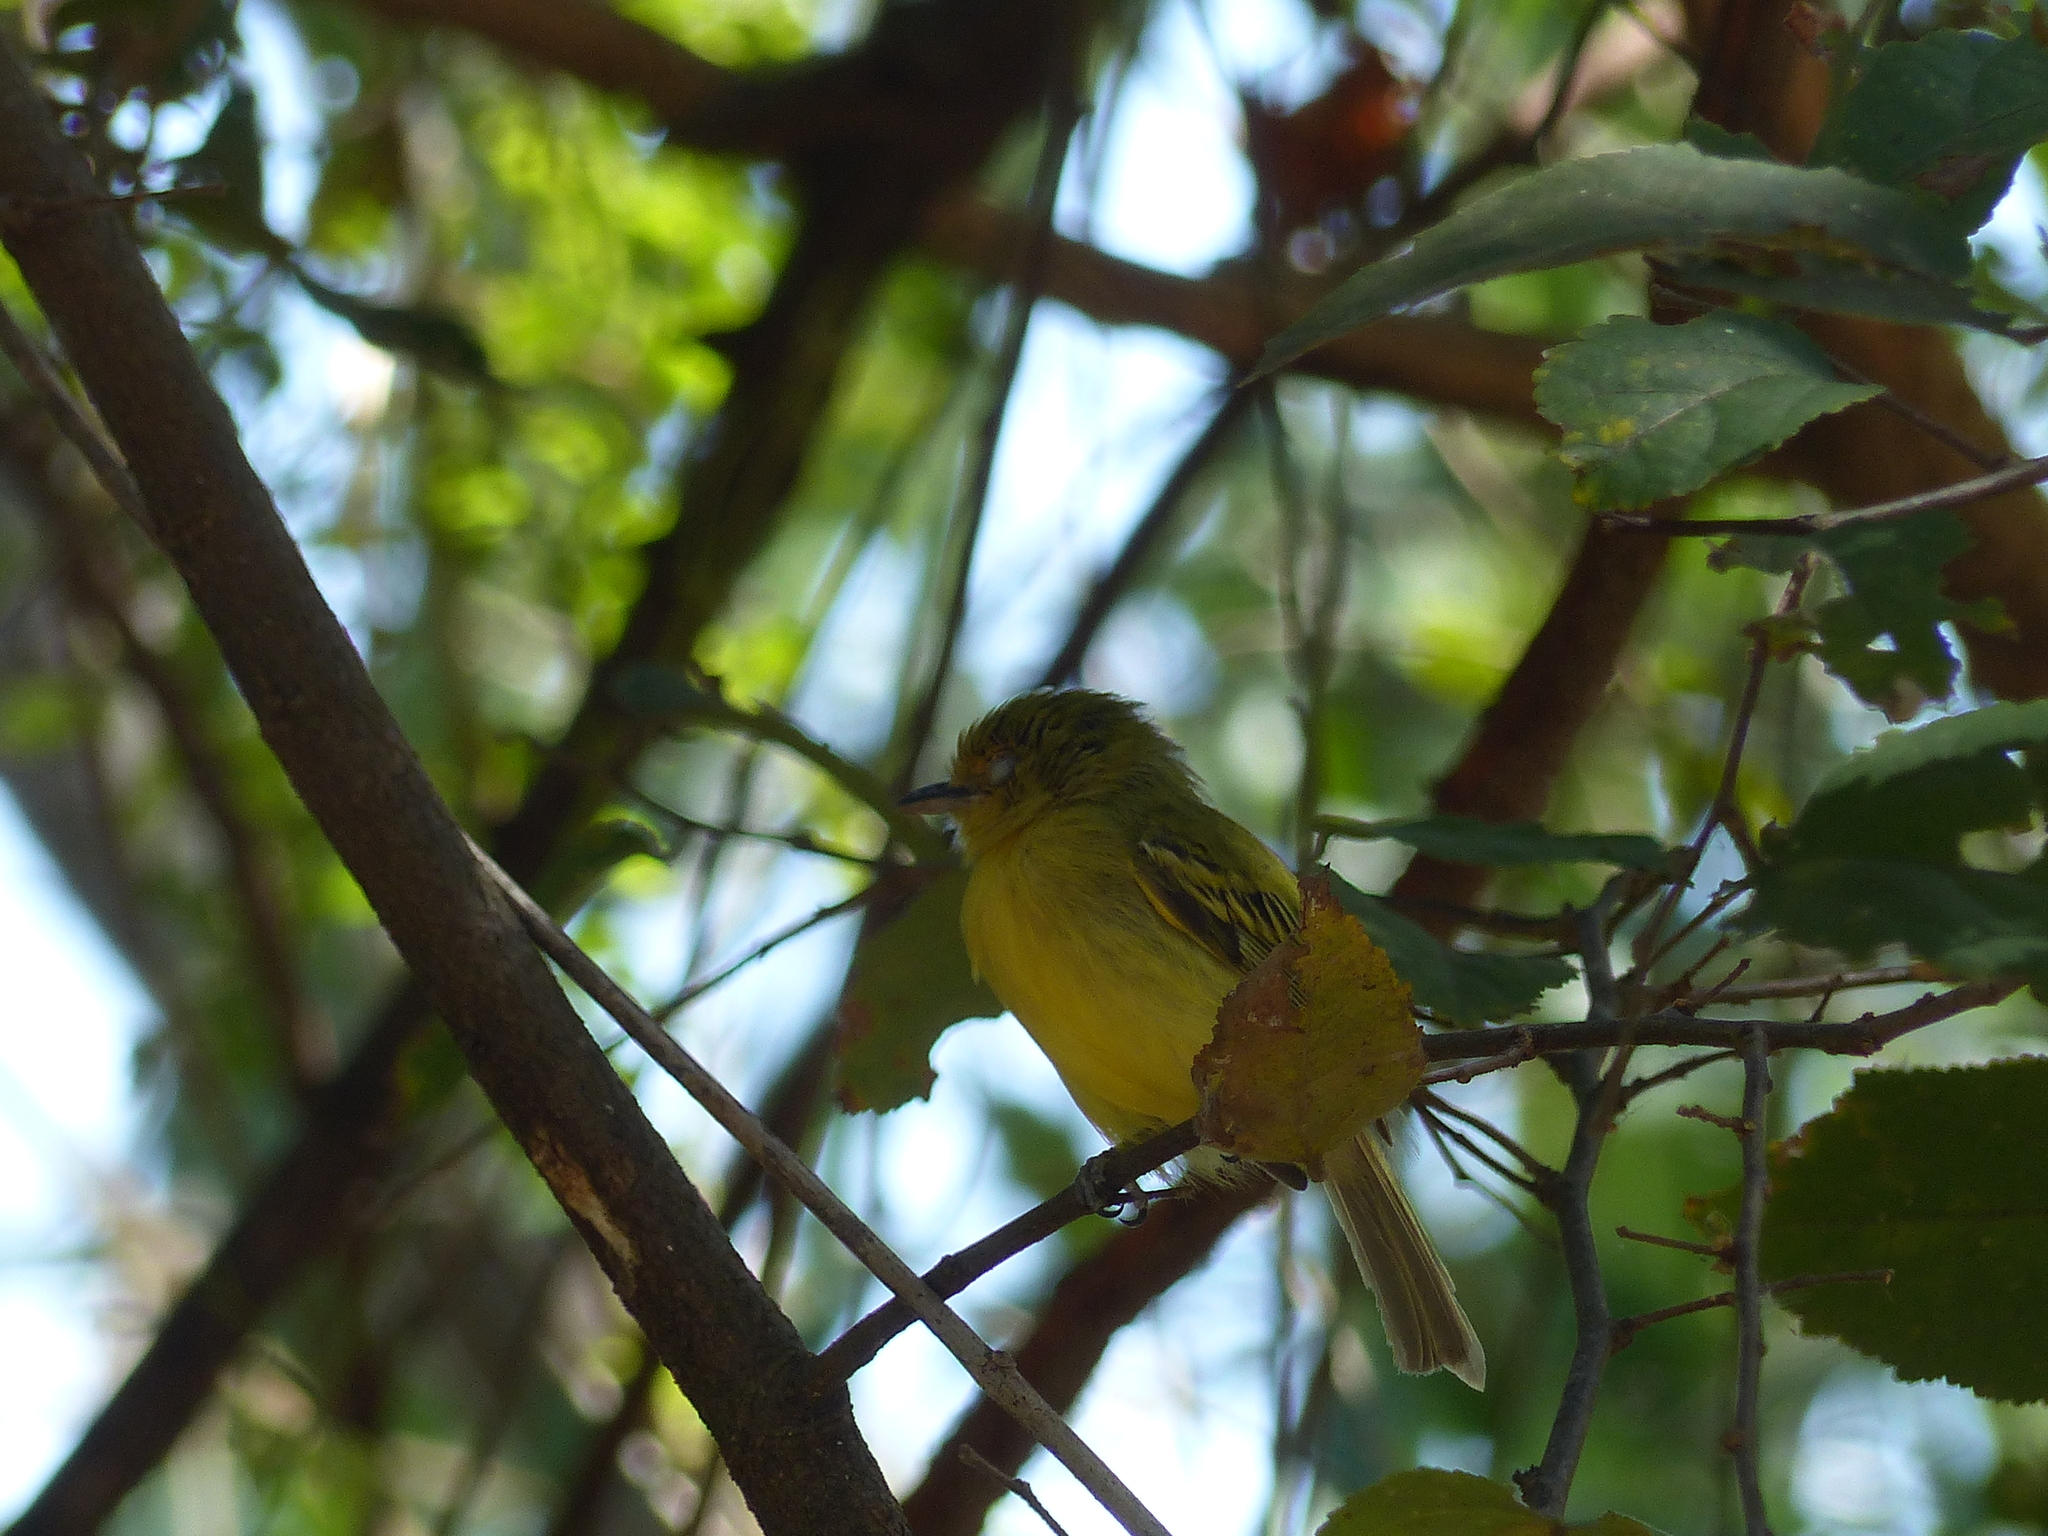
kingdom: Animalia
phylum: Chordata
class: Aves
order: Passeriformes
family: Tyrannidae
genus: Tolmomyias
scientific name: Tolmomyias flaviventris
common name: Ochre-lored flatbill
